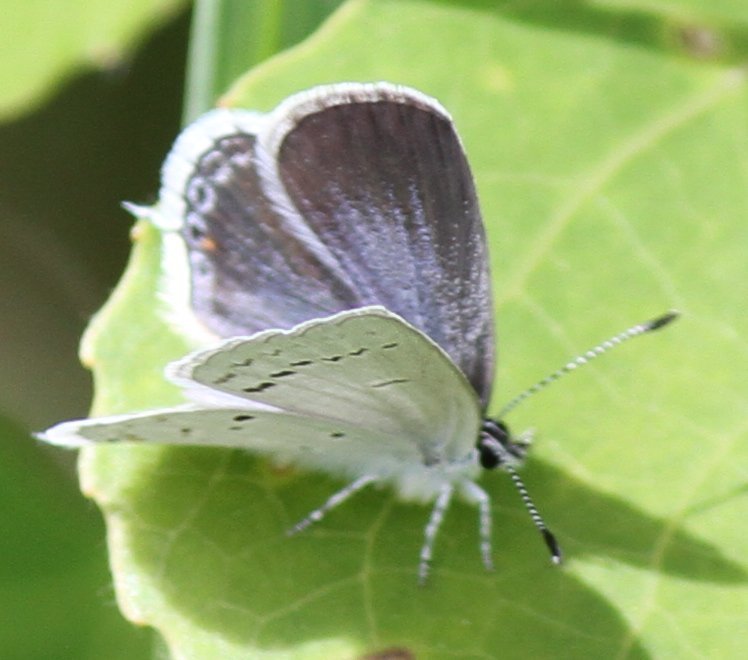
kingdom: Animalia
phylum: Arthropoda
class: Insecta
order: Lepidoptera
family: Lycaenidae
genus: Elkalyce
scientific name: Elkalyce amyntula
